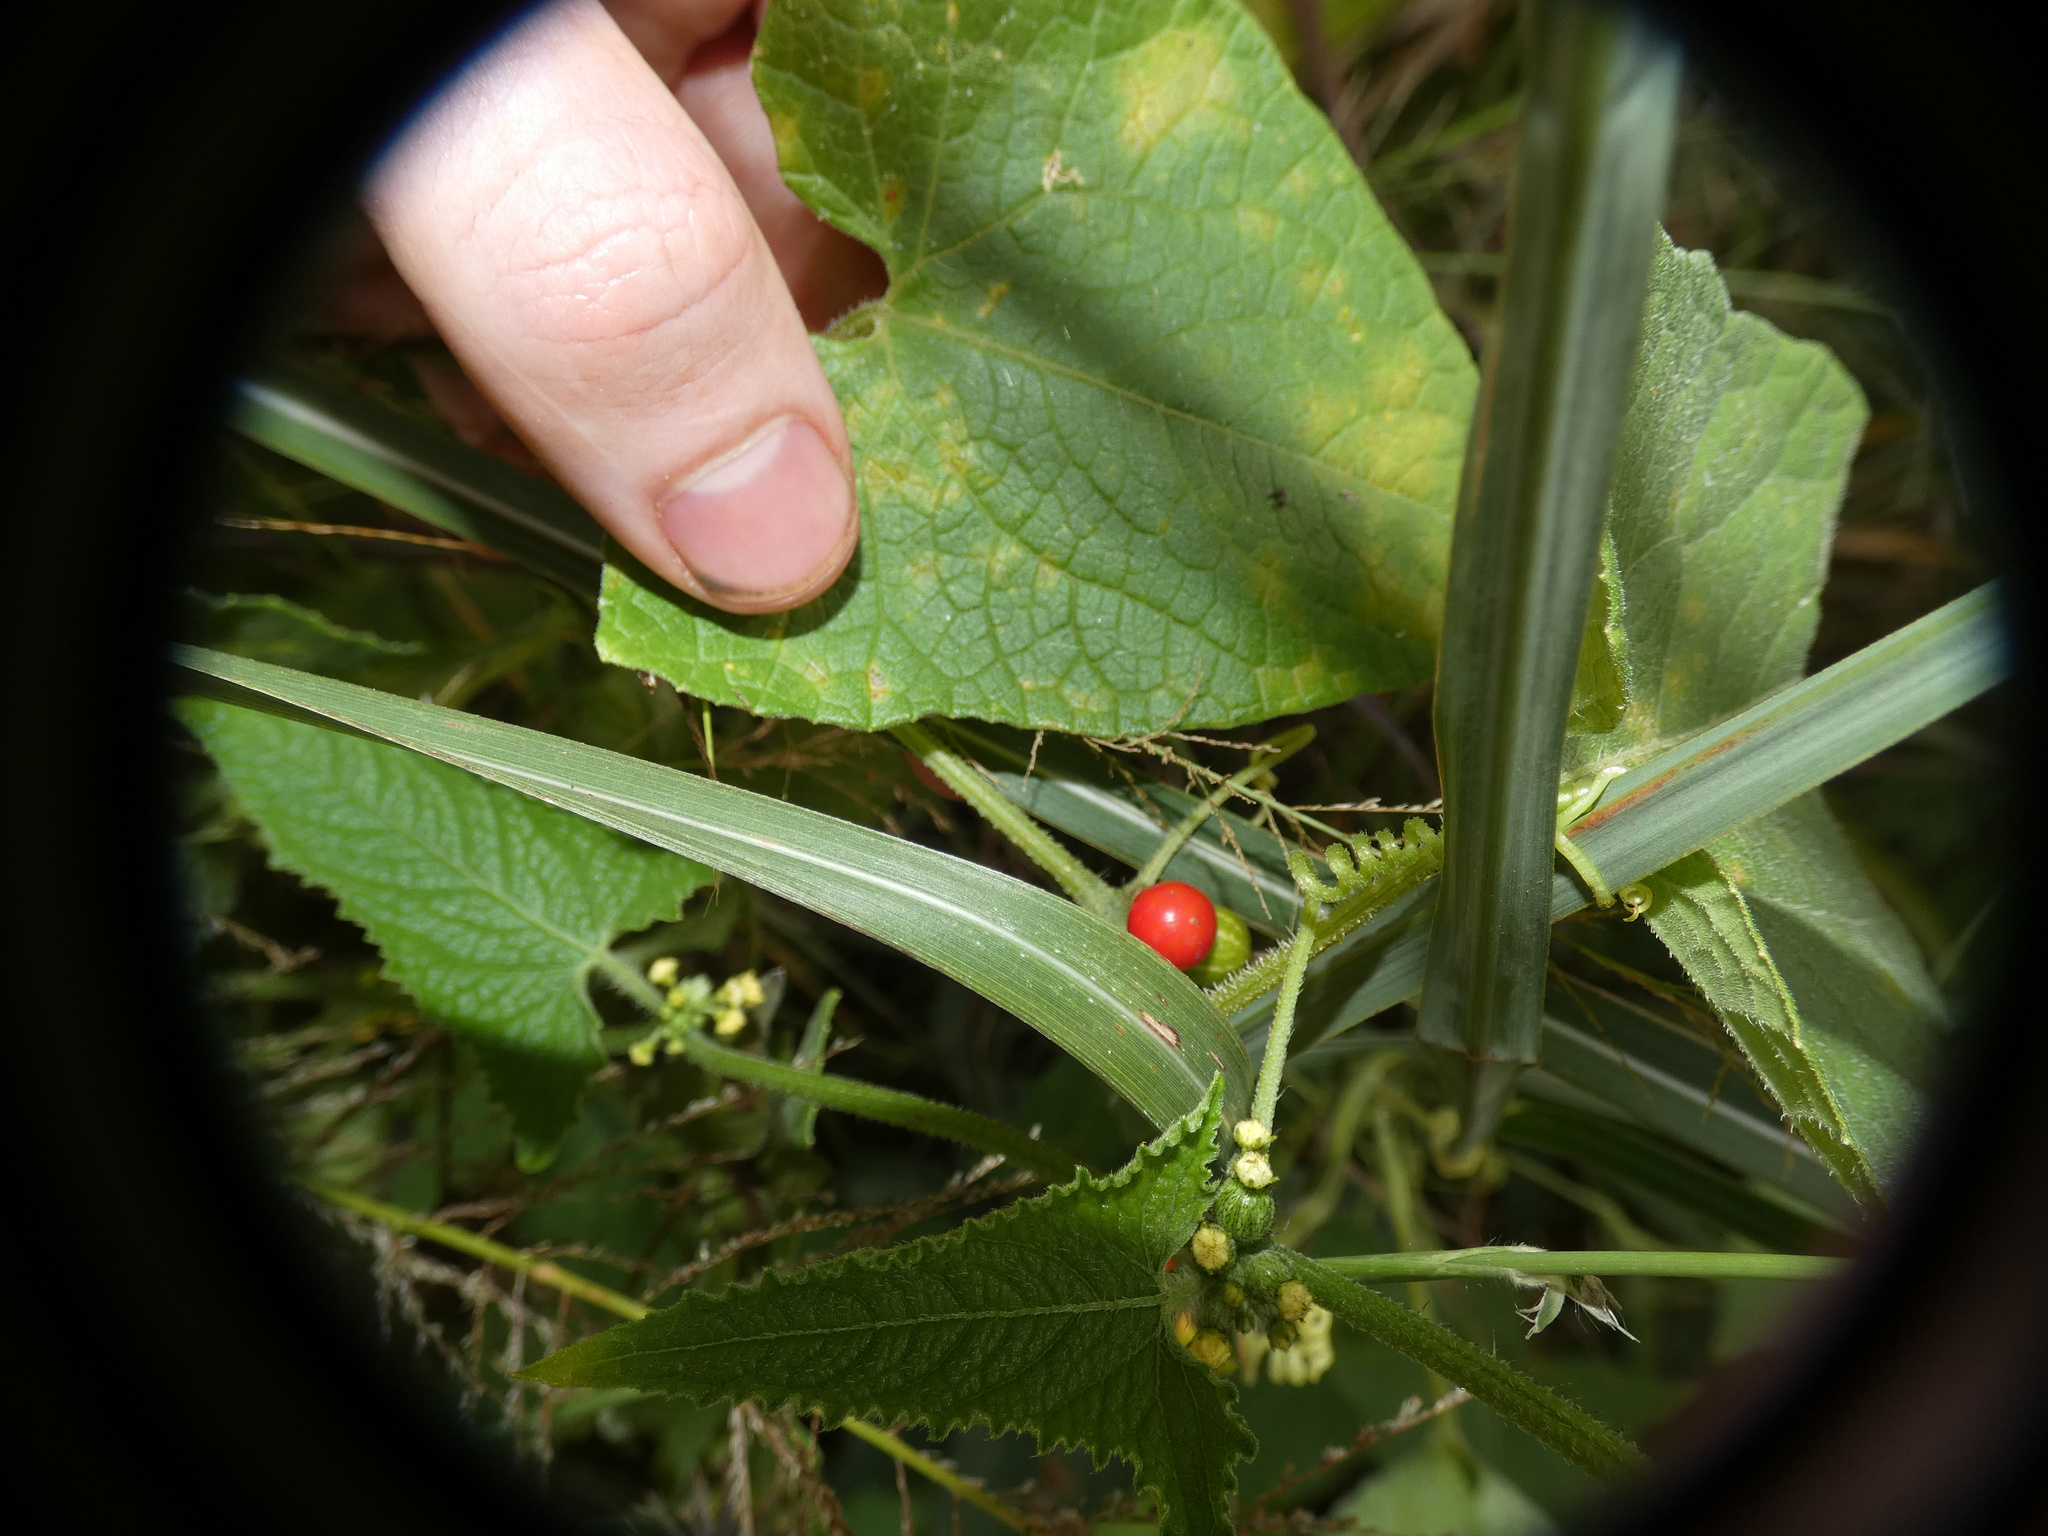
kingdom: Plantae
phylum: Tracheophyta
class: Magnoliopsida
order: Cucurbitales
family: Cucurbitaceae
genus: Cucumis
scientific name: Cucumis maderaspatanus
